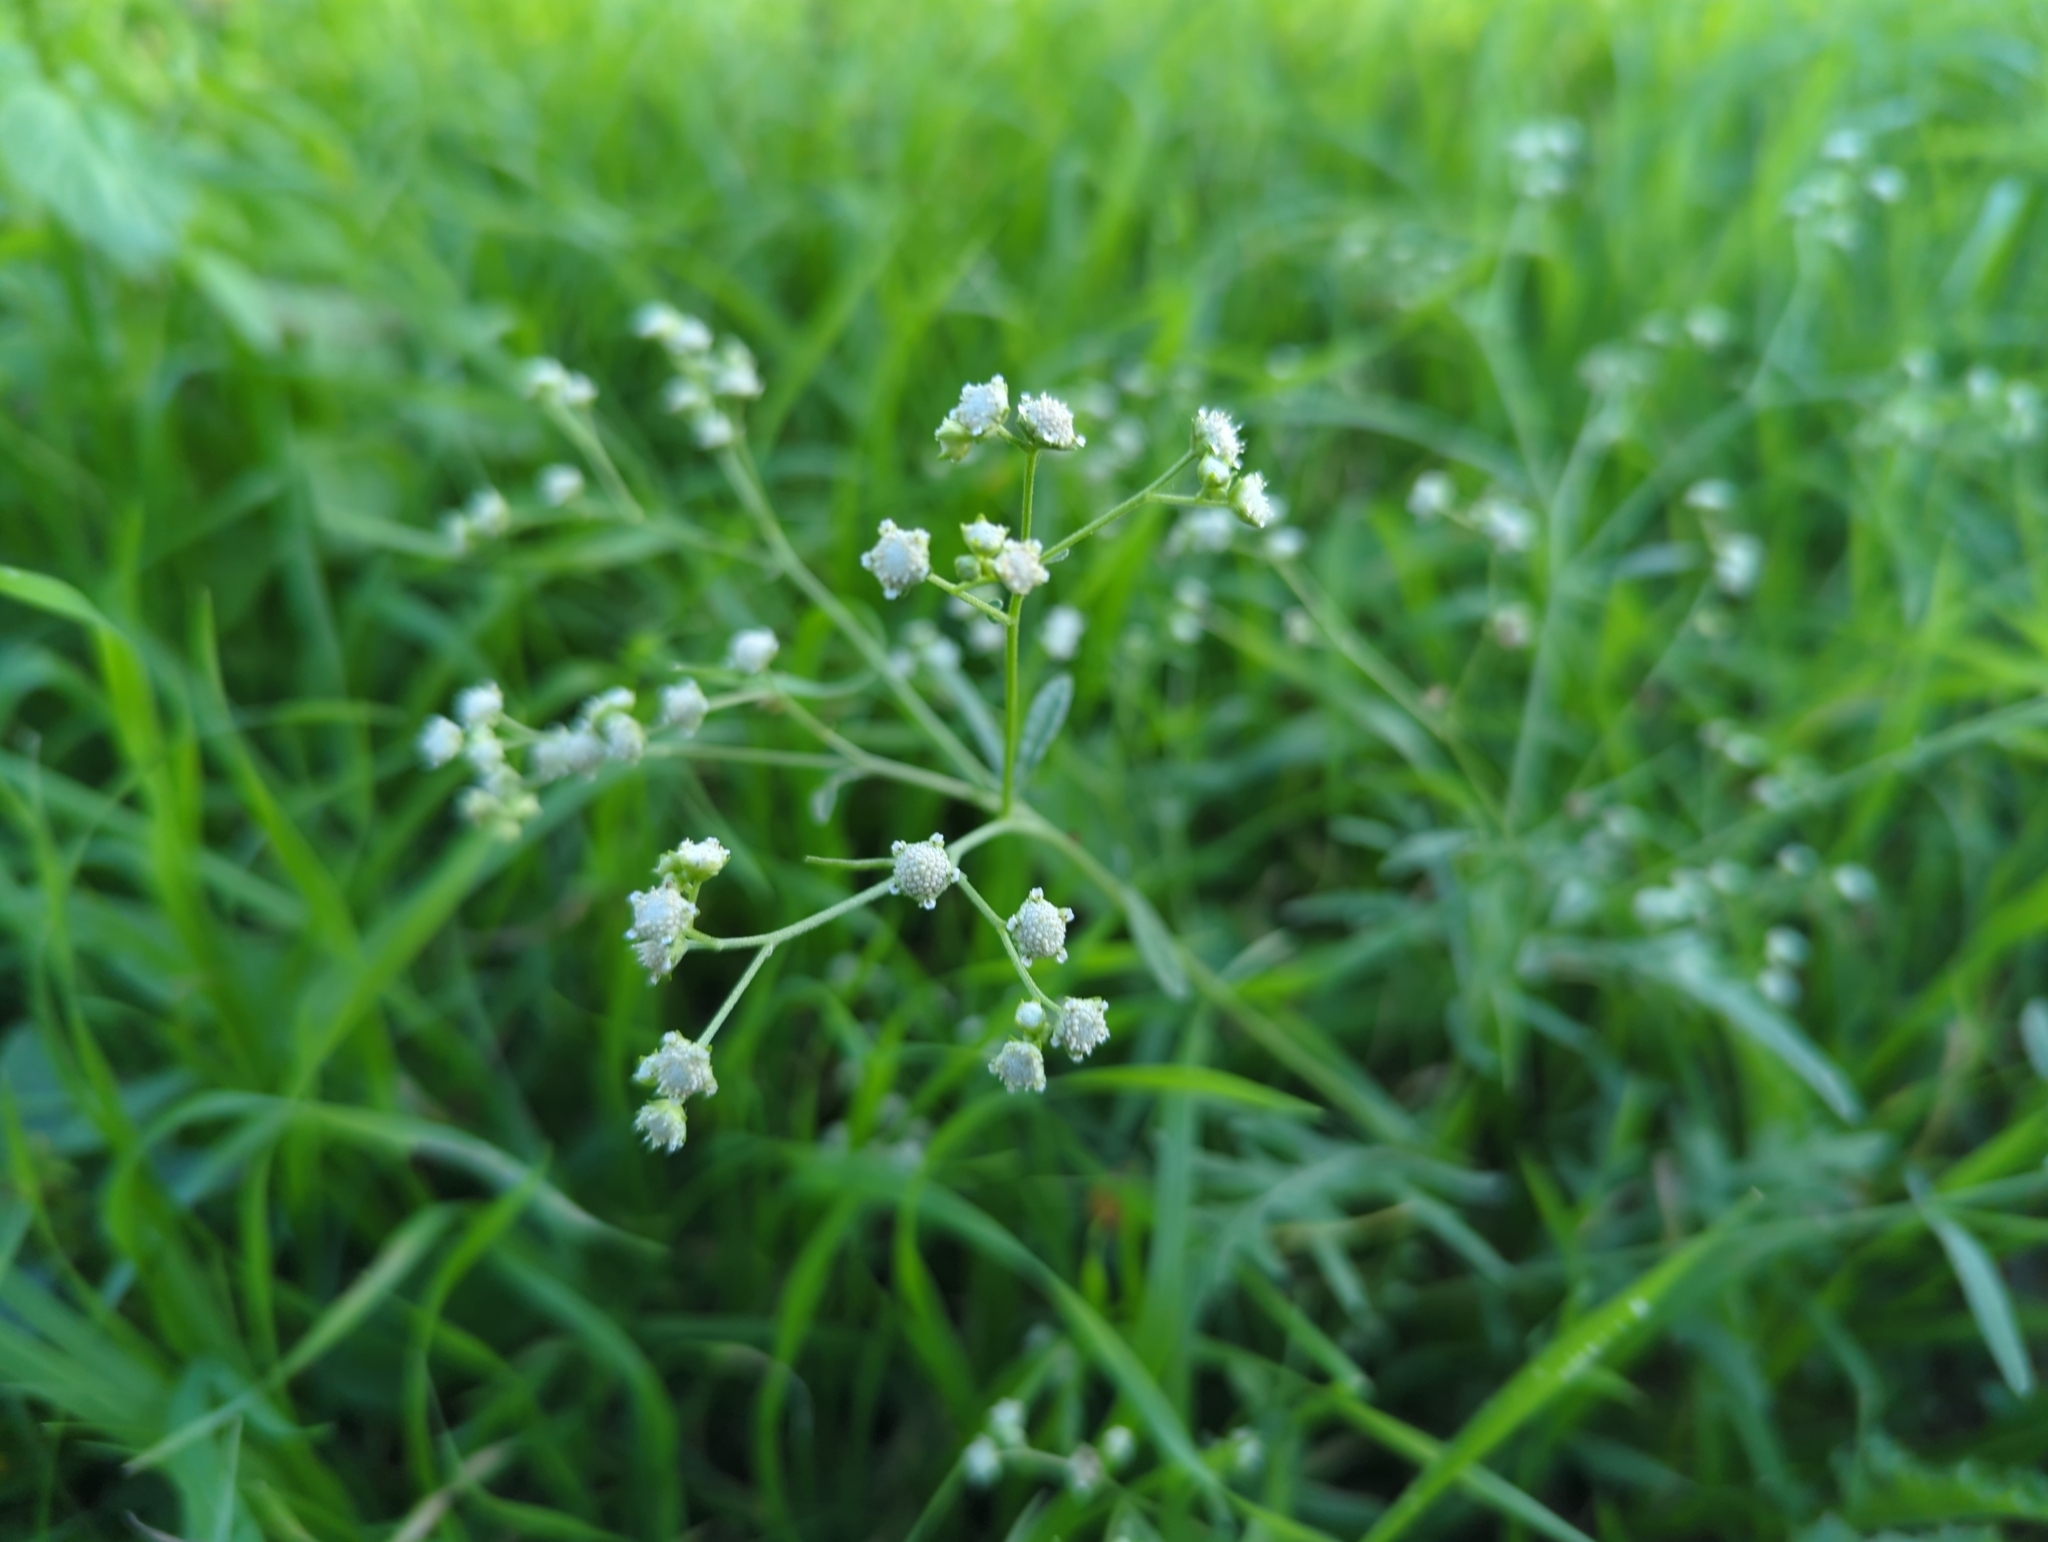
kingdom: Plantae
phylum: Tracheophyta
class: Magnoliopsida
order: Asterales
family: Asteraceae
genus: Parthenium
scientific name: Parthenium hysterophorus
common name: Santa maria feverfew
